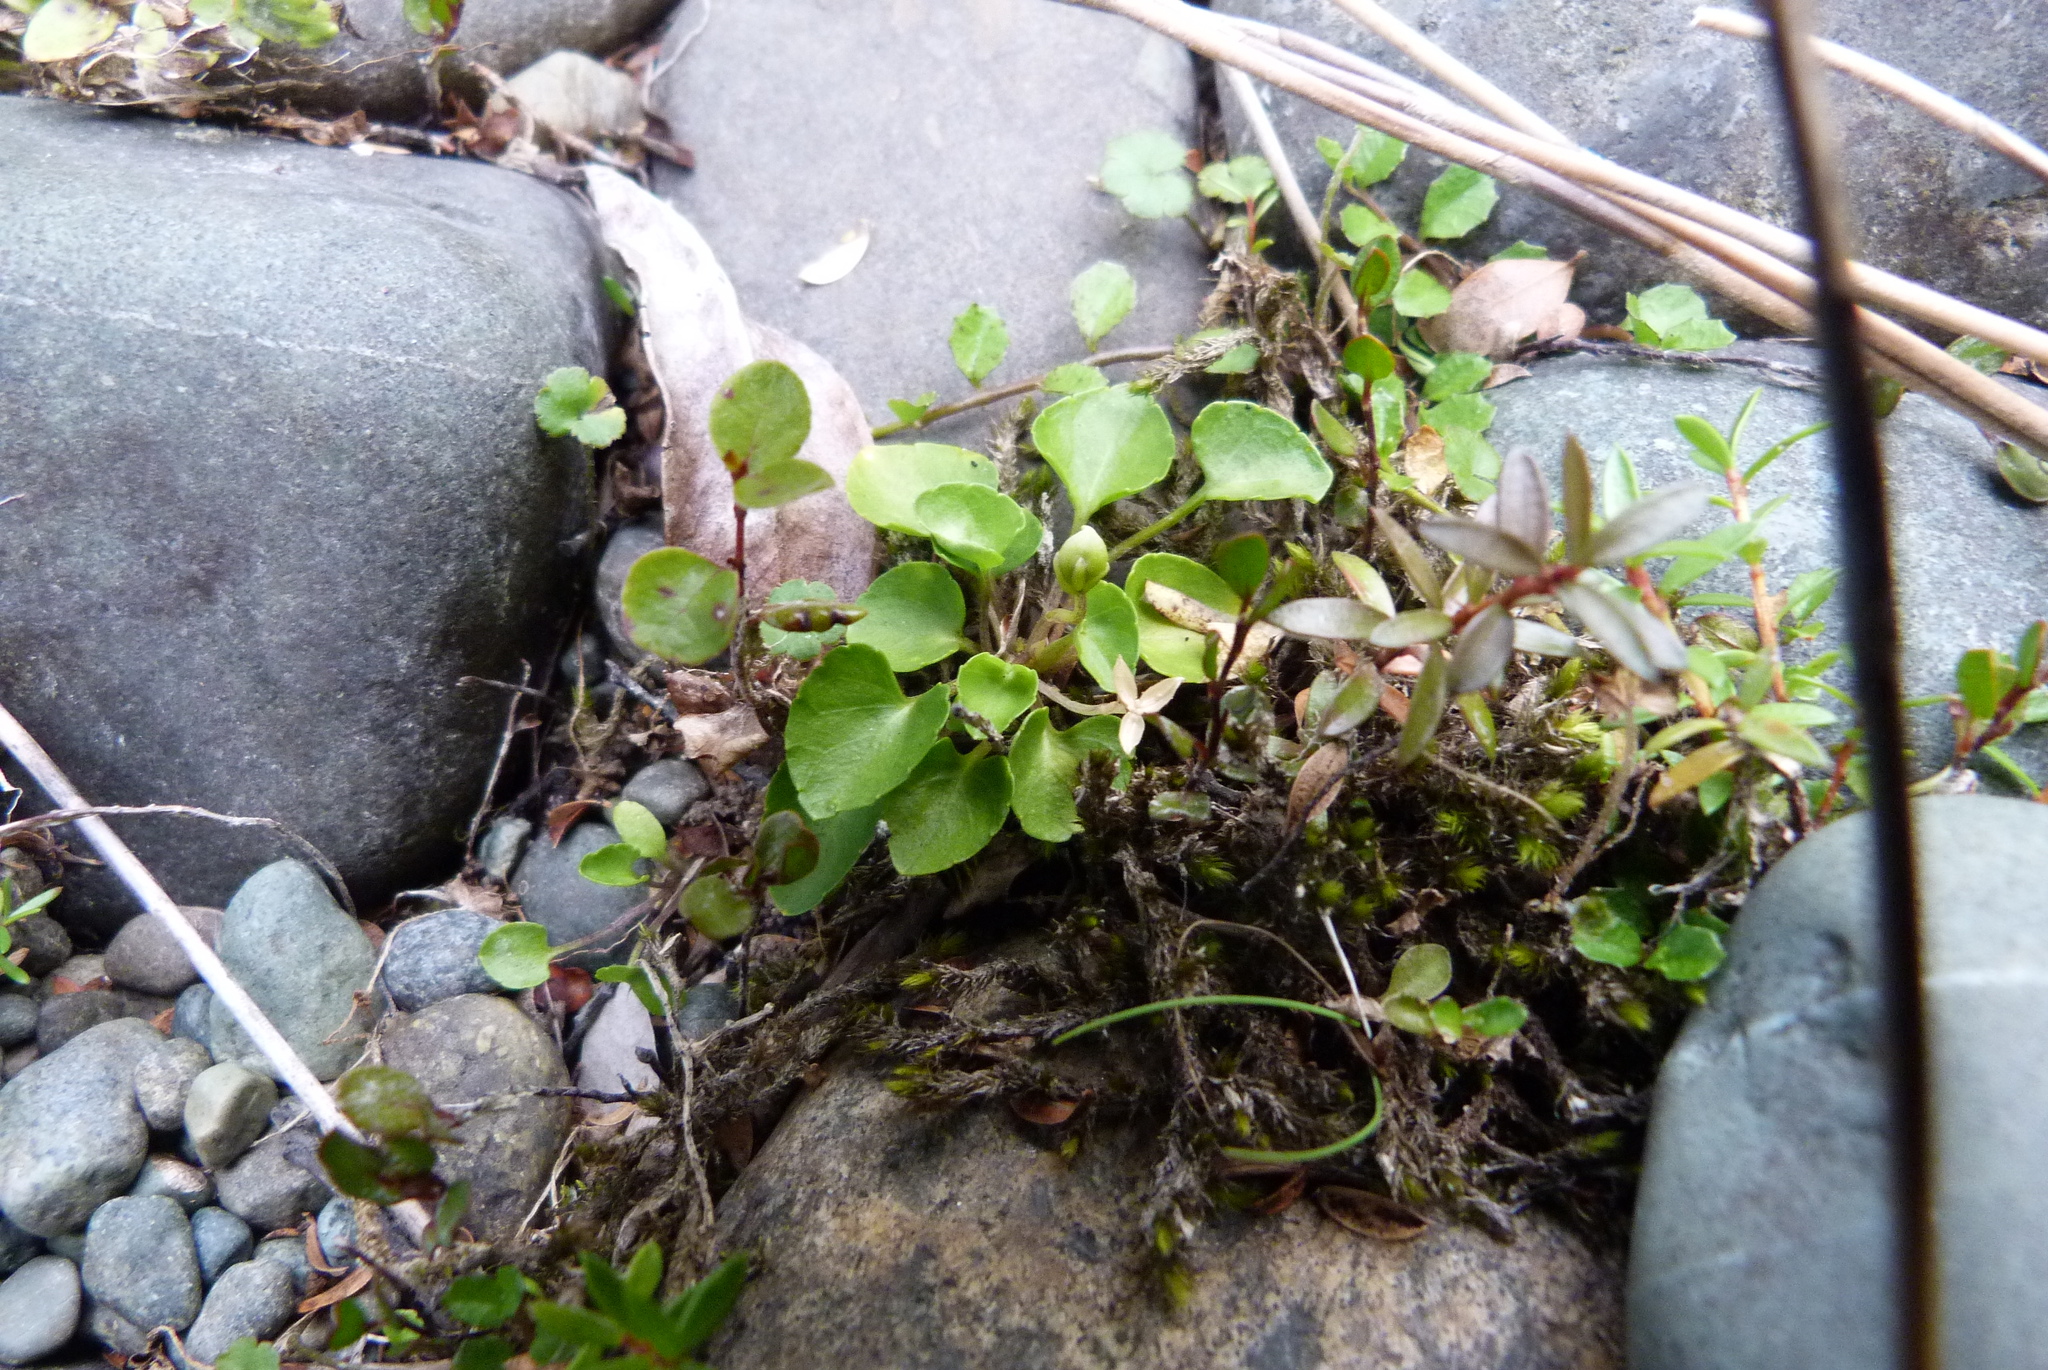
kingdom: Plantae
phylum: Tracheophyta
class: Magnoliopsida
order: Malpighiales
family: Violaceae
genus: Viola
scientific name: Viola cunninghamii
